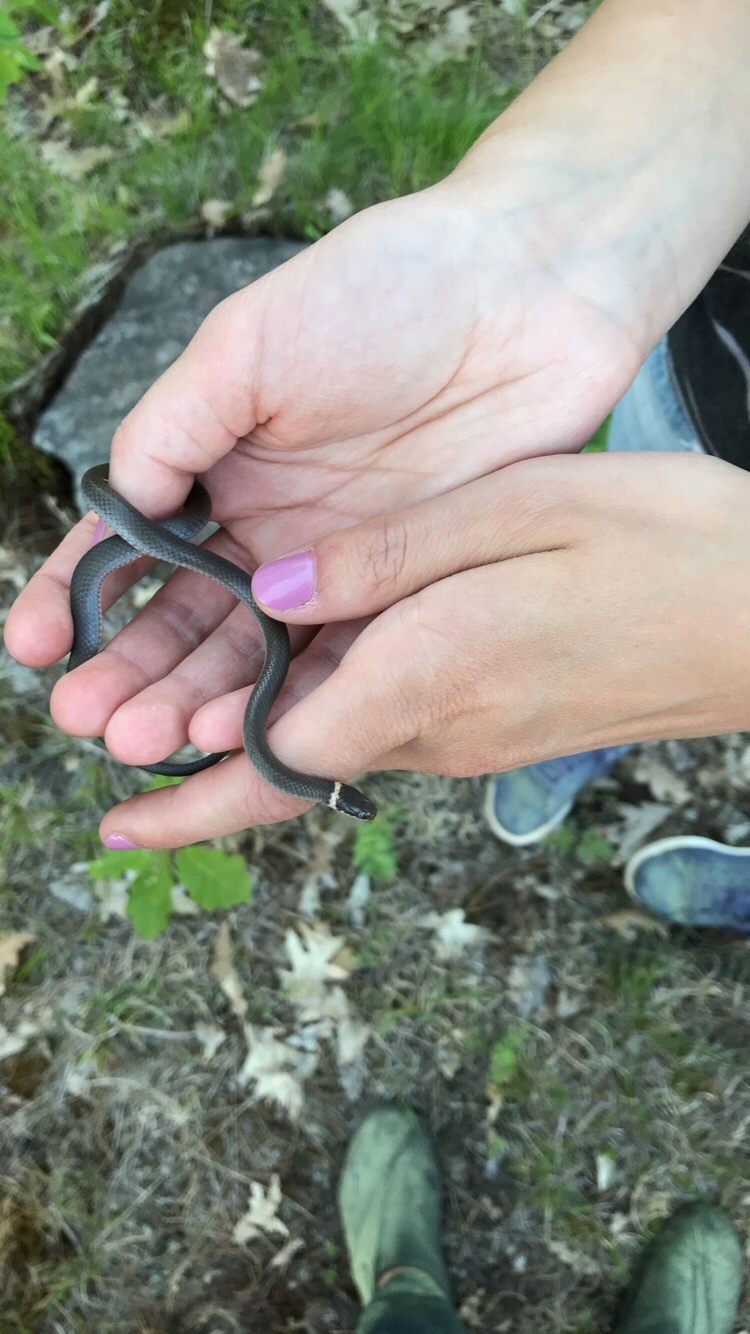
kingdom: Animalia
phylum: Chordata
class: Squamata
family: Colubridae
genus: Diadophis
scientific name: Diadophis punctatus
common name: Ringneck snake
